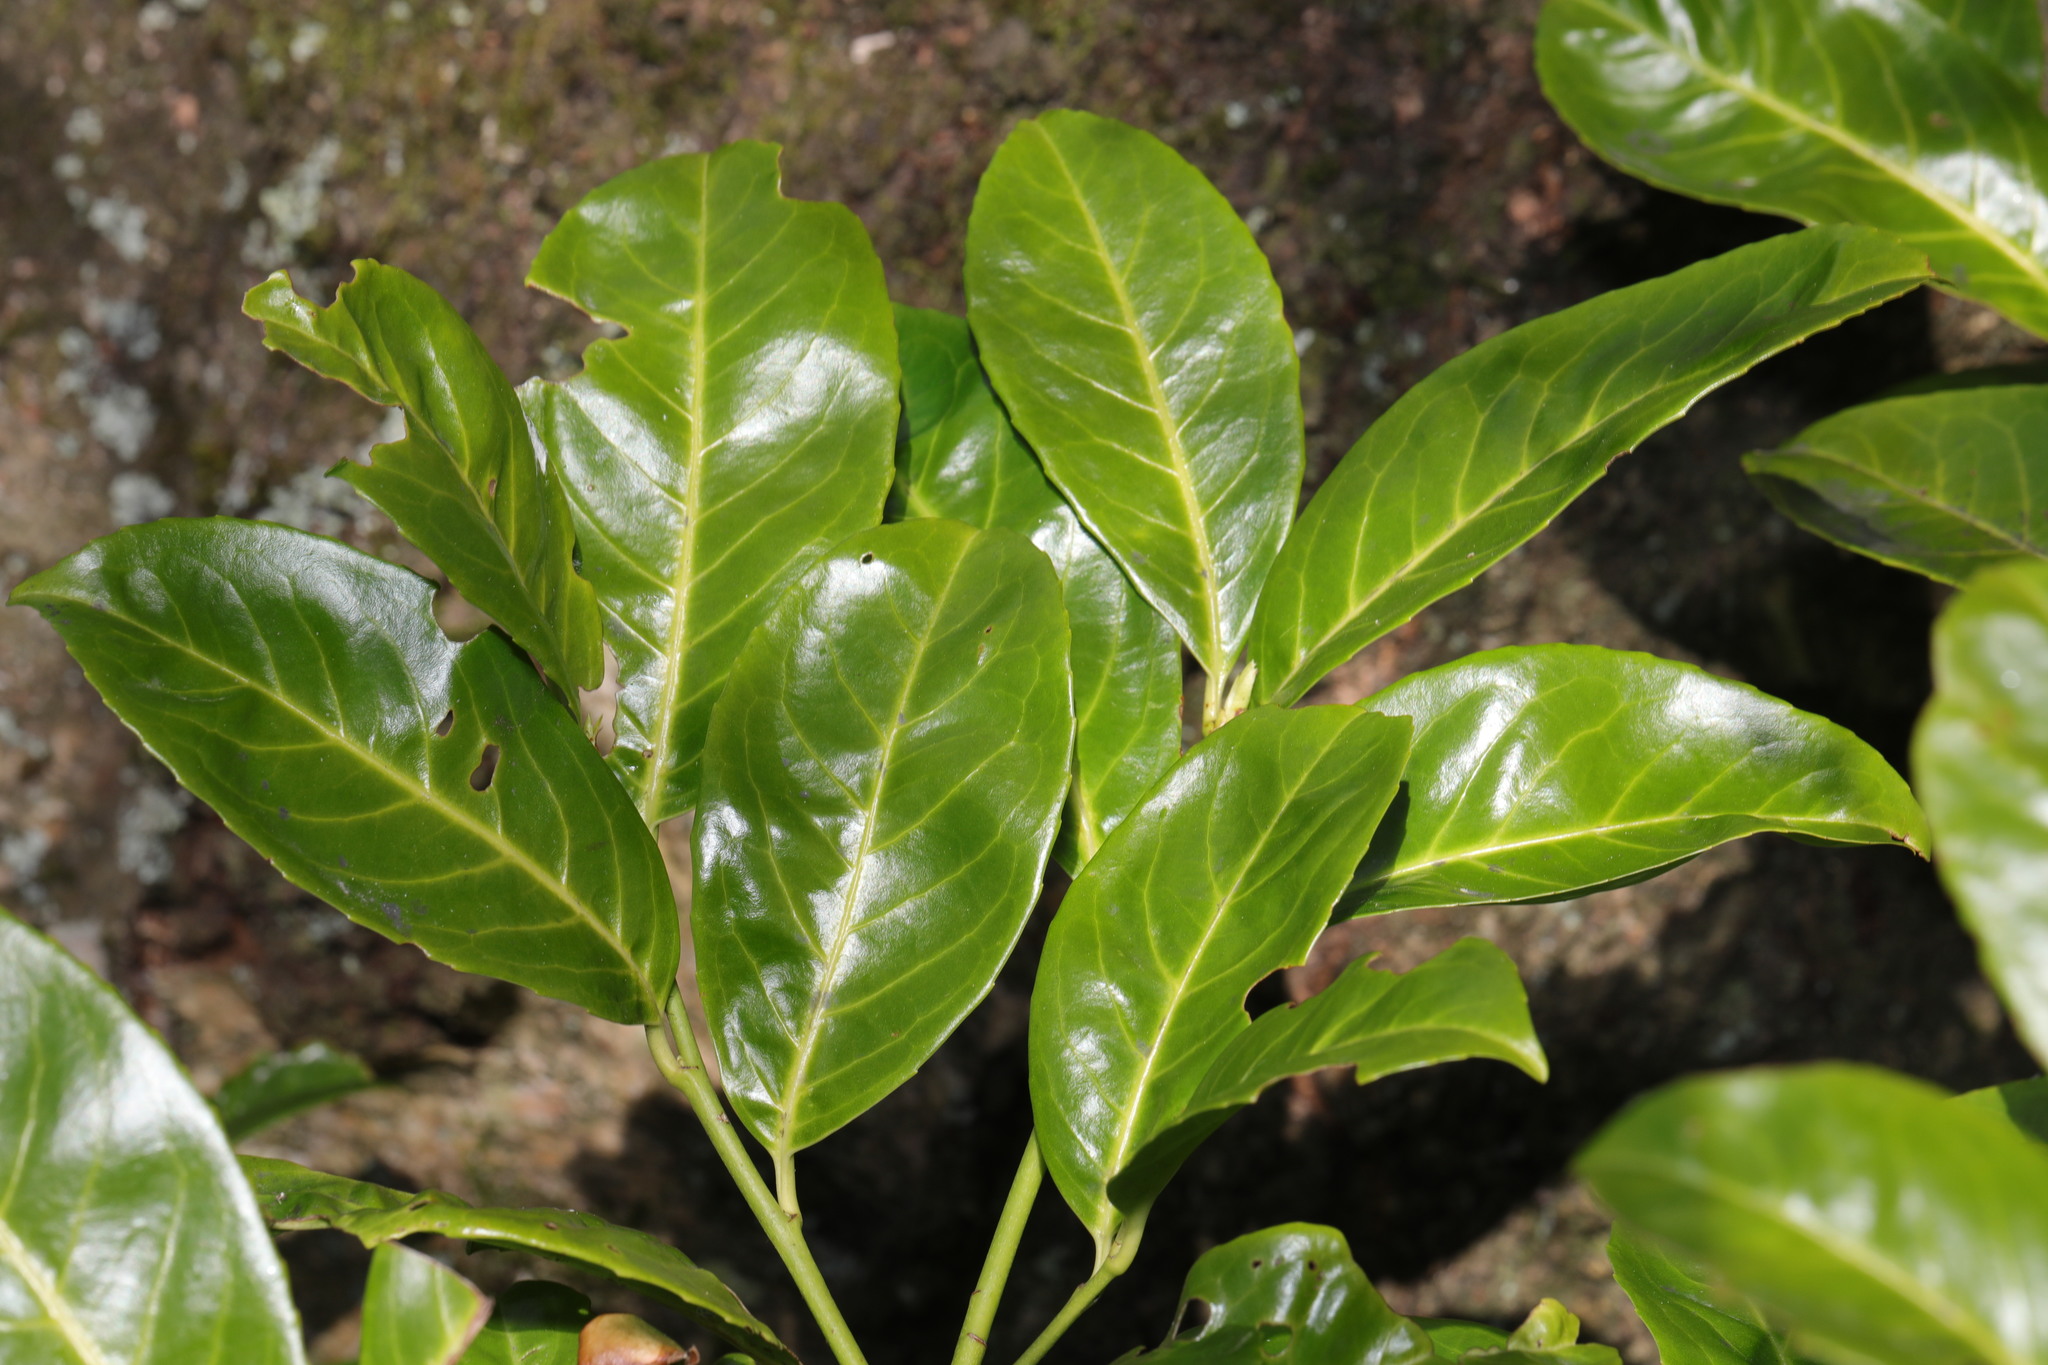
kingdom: Plantae
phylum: Tracheophyta
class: Magnoliopsida
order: Rosales
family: Rosaceae
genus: Prunus
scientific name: Prunus laurocerasus
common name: Cherry laurel
